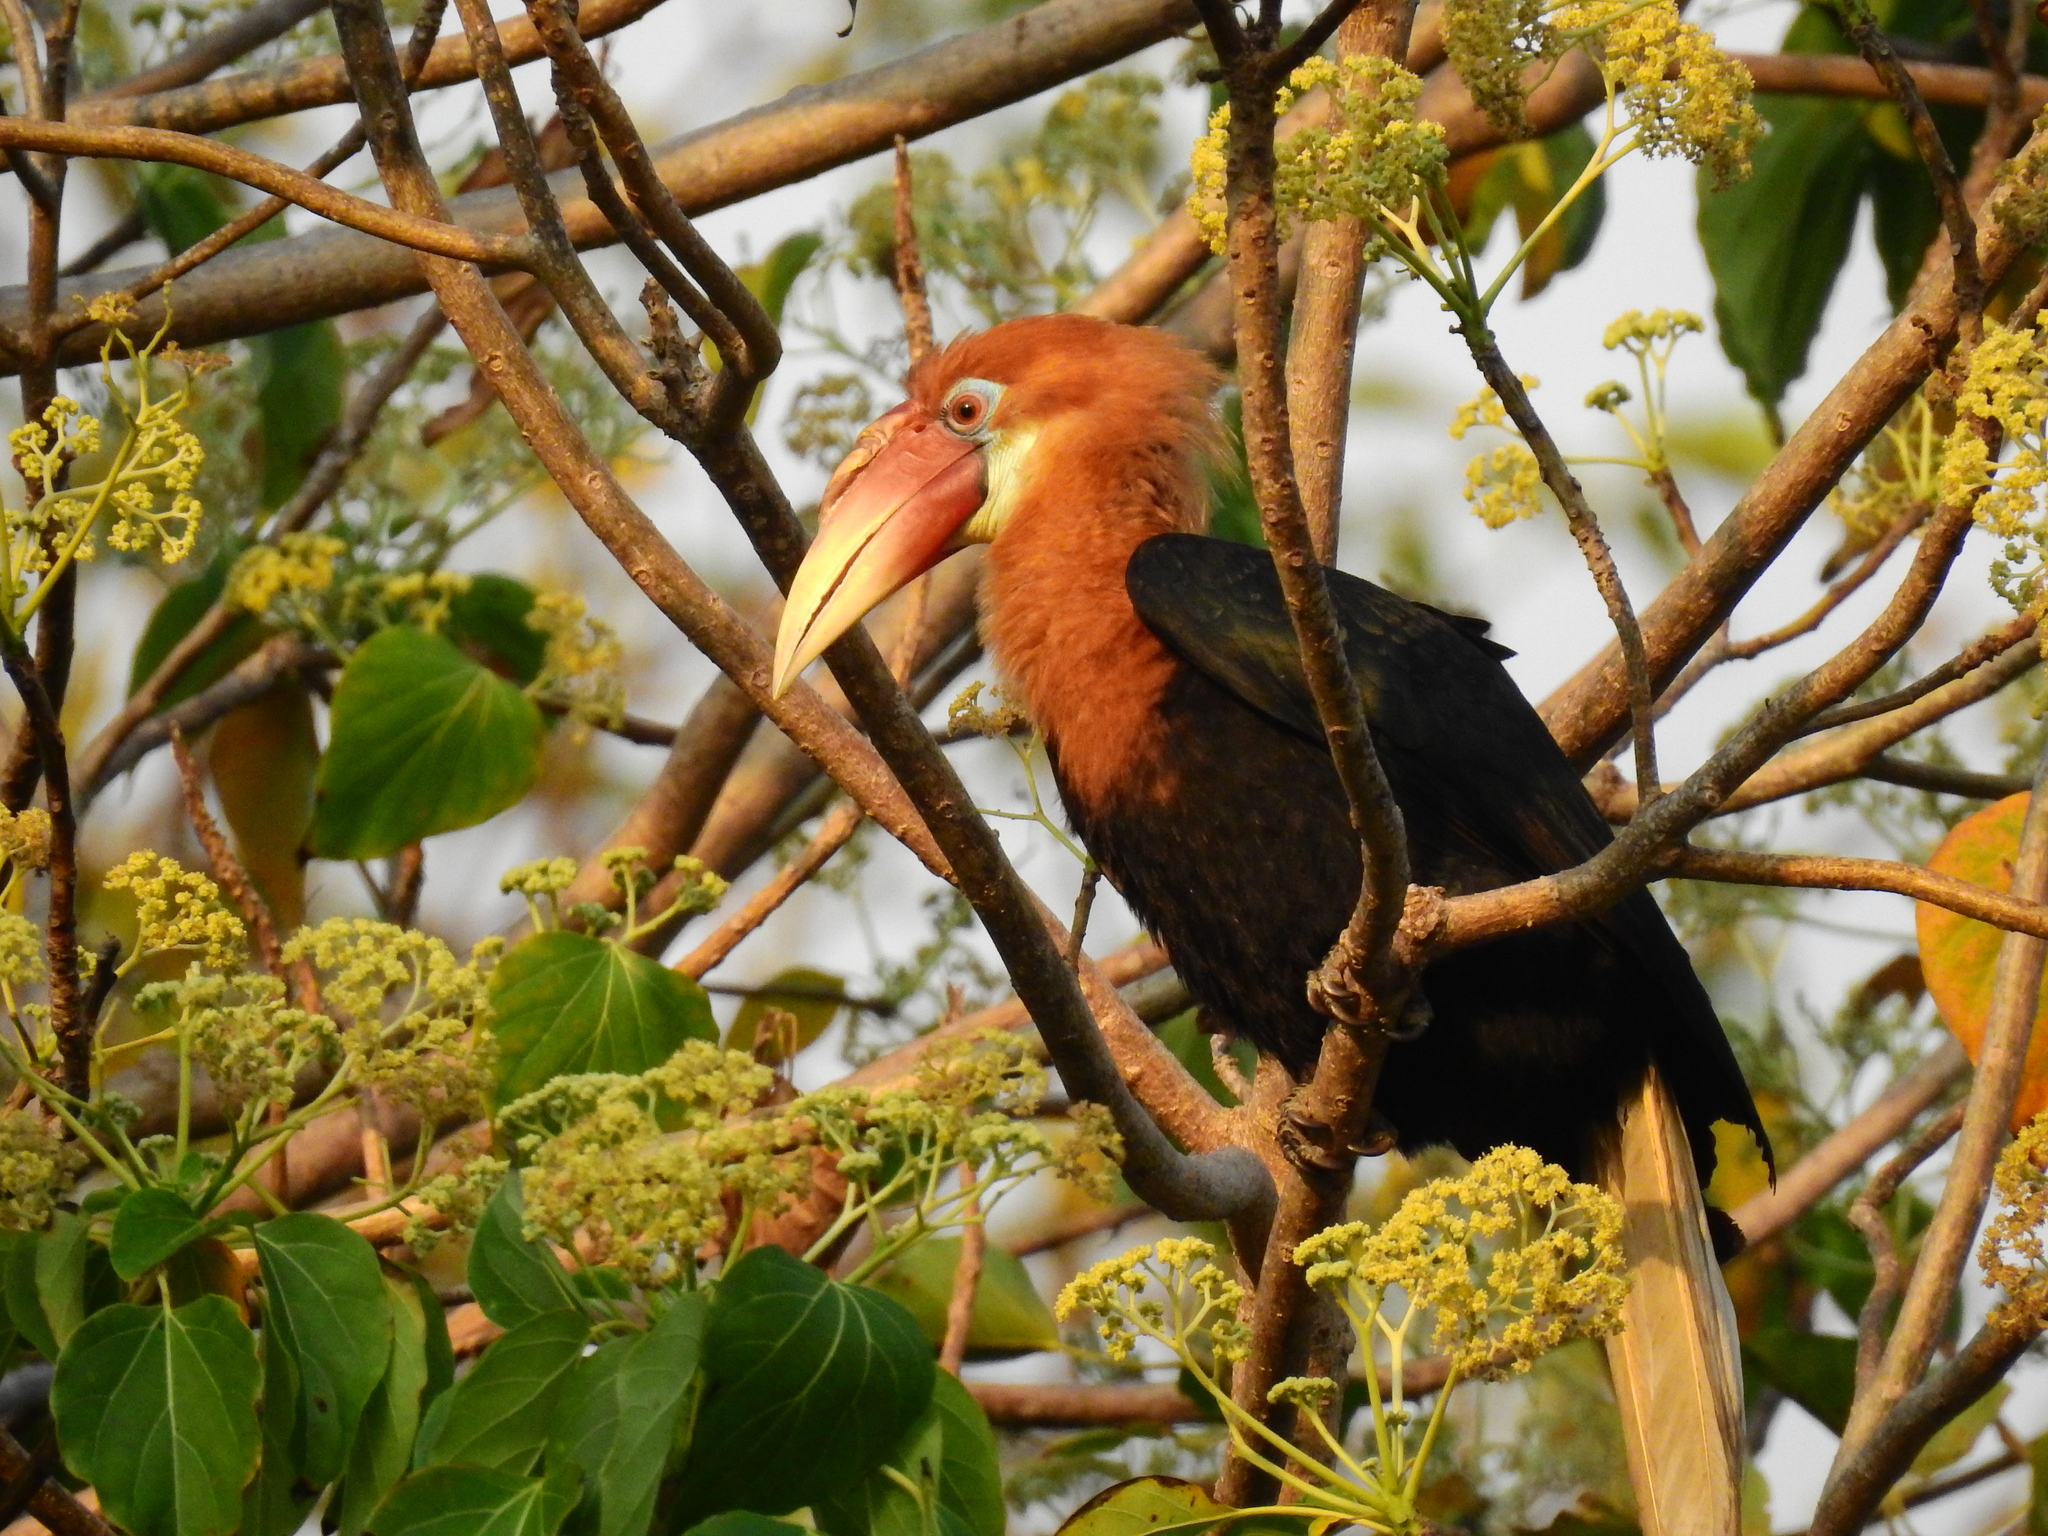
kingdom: Animalia
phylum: Chordata
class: Aves
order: Bucerotiformes
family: Bucerotidae
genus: Rhyticeros
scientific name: Rhyticeros narcondami
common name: Narcondam hornbill
